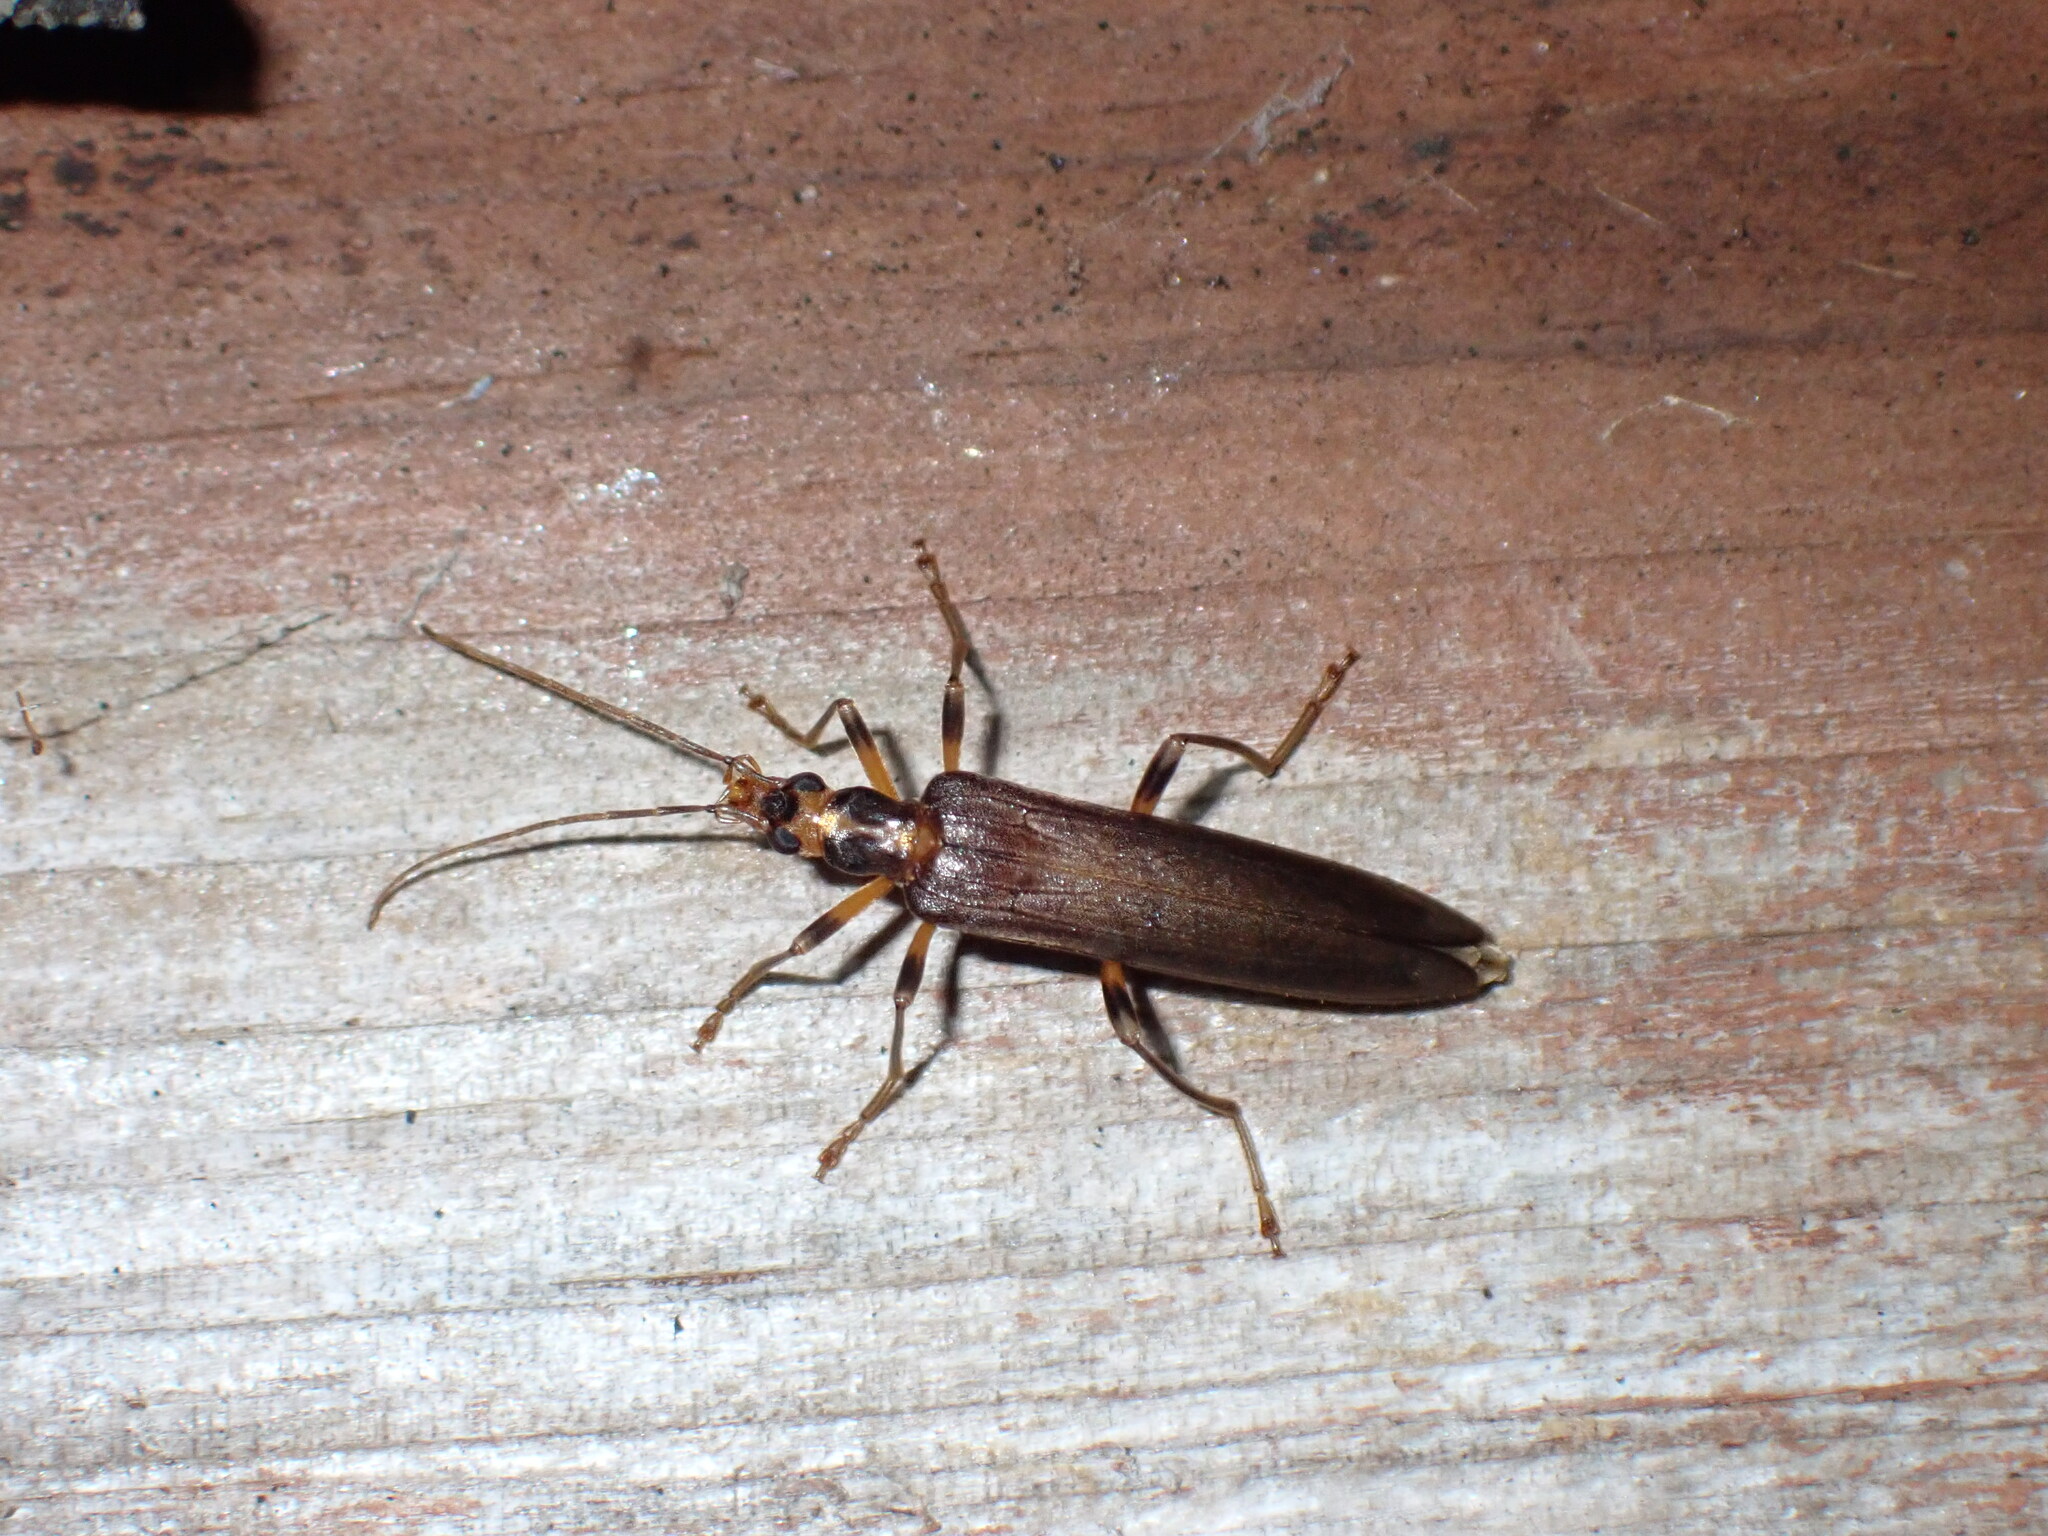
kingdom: Animalia
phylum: Arthropoda
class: Insecta
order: Coleoptera
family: Oedemeridae
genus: Oedemera
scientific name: Oedemera femoralis
